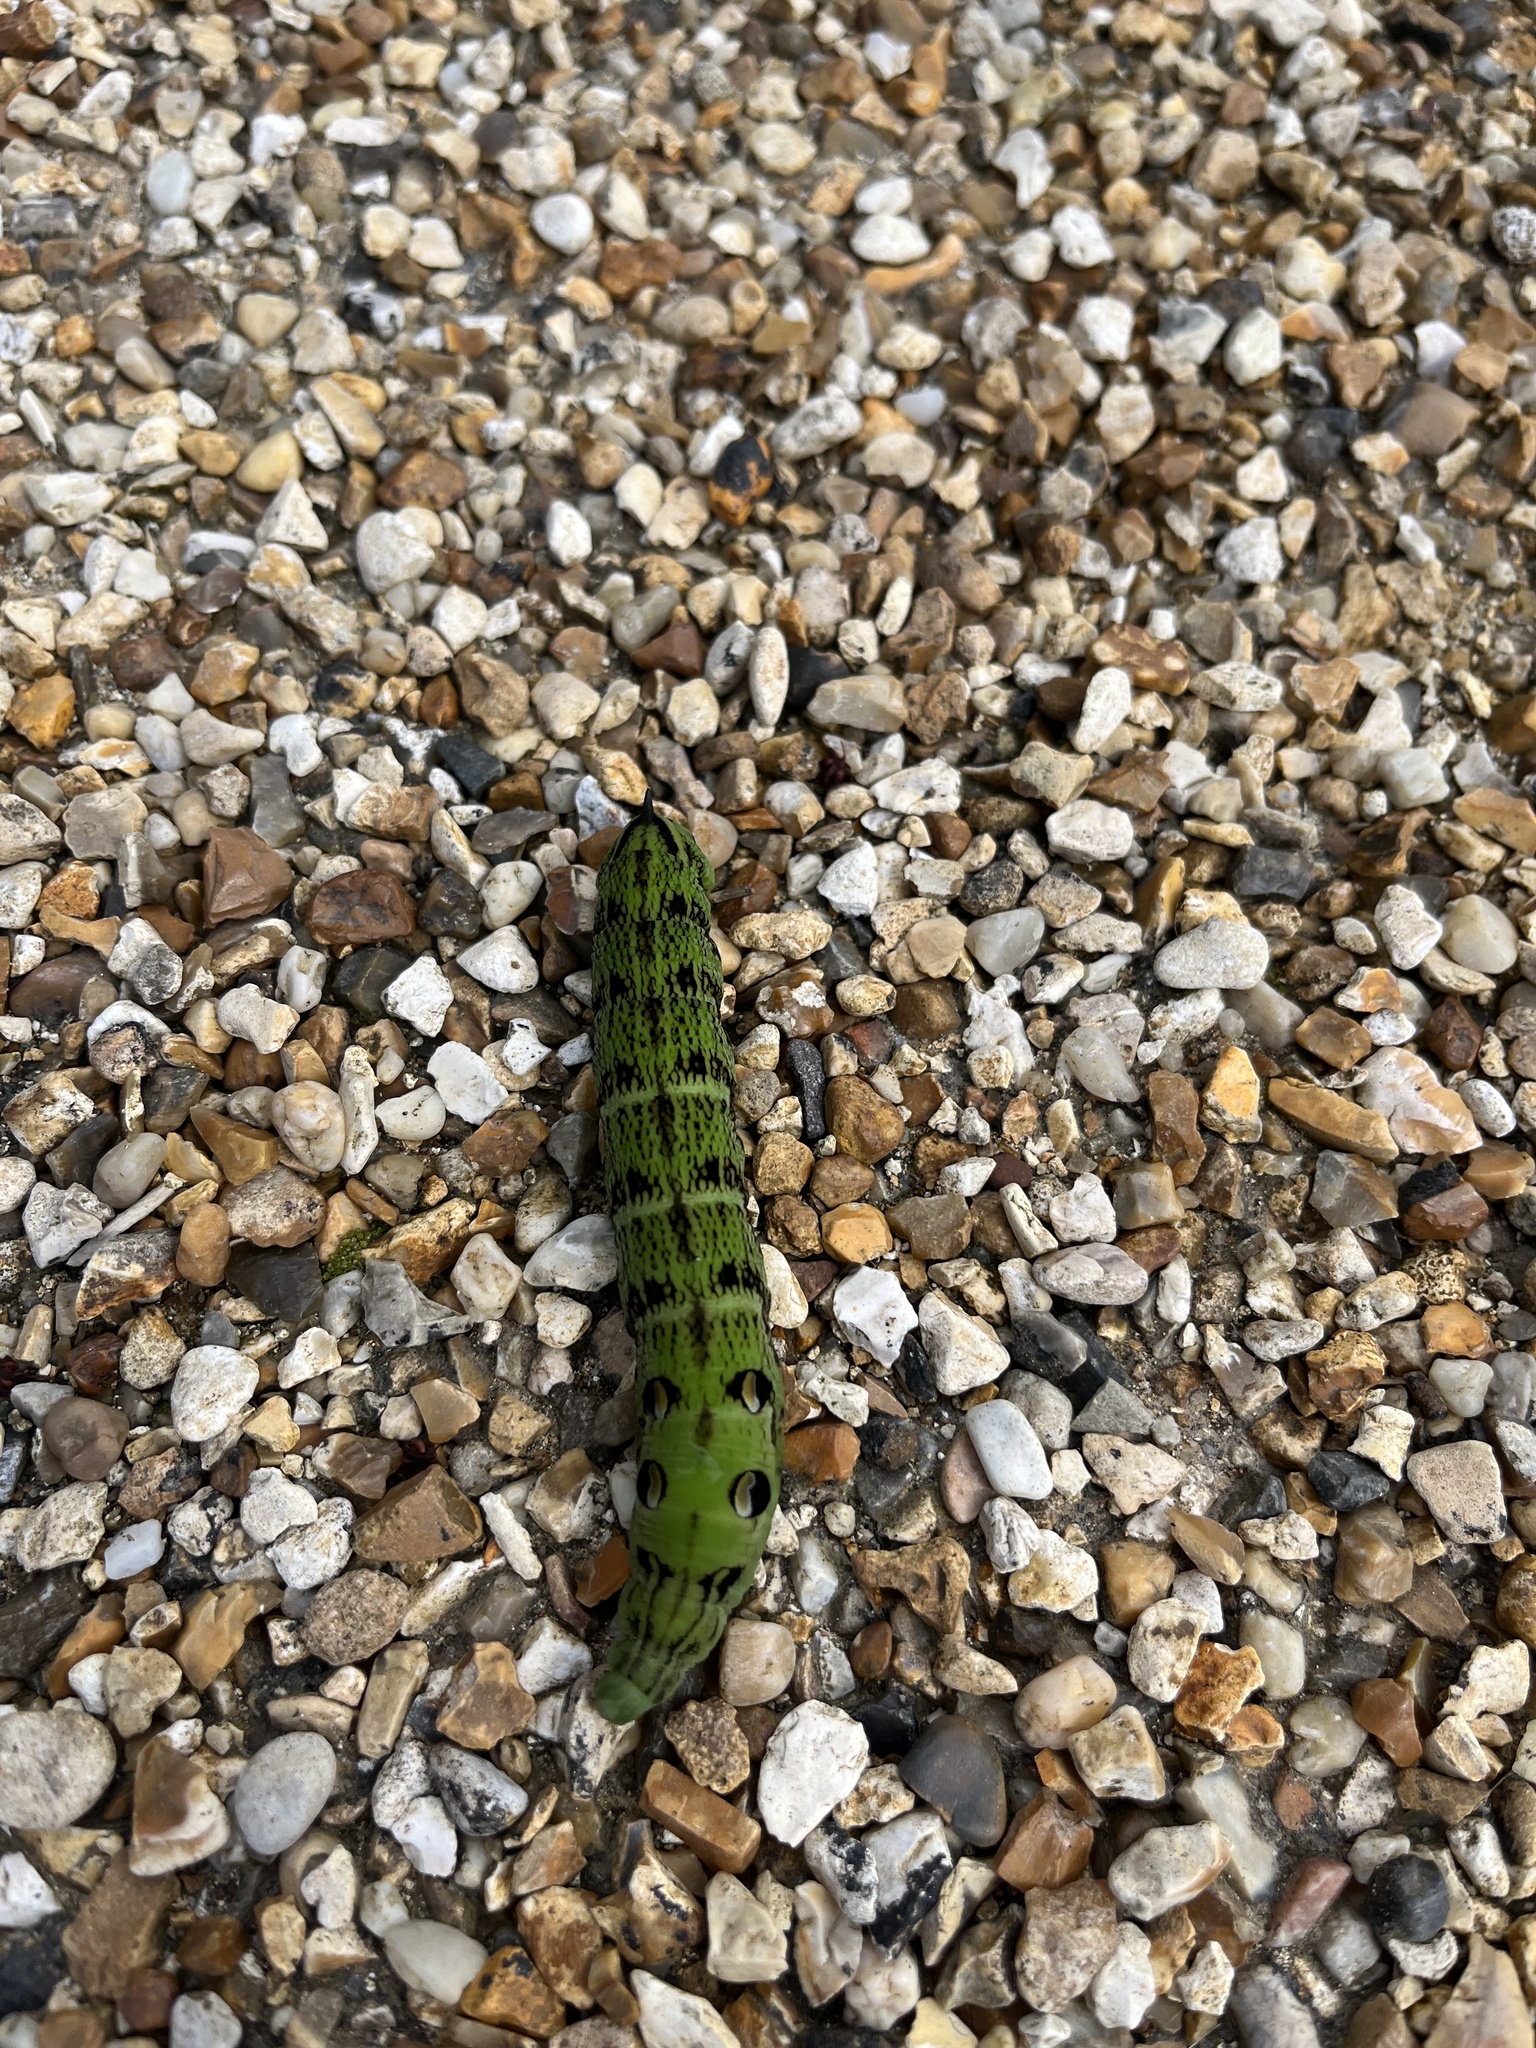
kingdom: Animalia
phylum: Arthropoda
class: Insecta
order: Lepidoptera
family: Sphingidae
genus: Deilephila
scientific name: Deilephila elpenor
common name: Elephant hawk-moth
